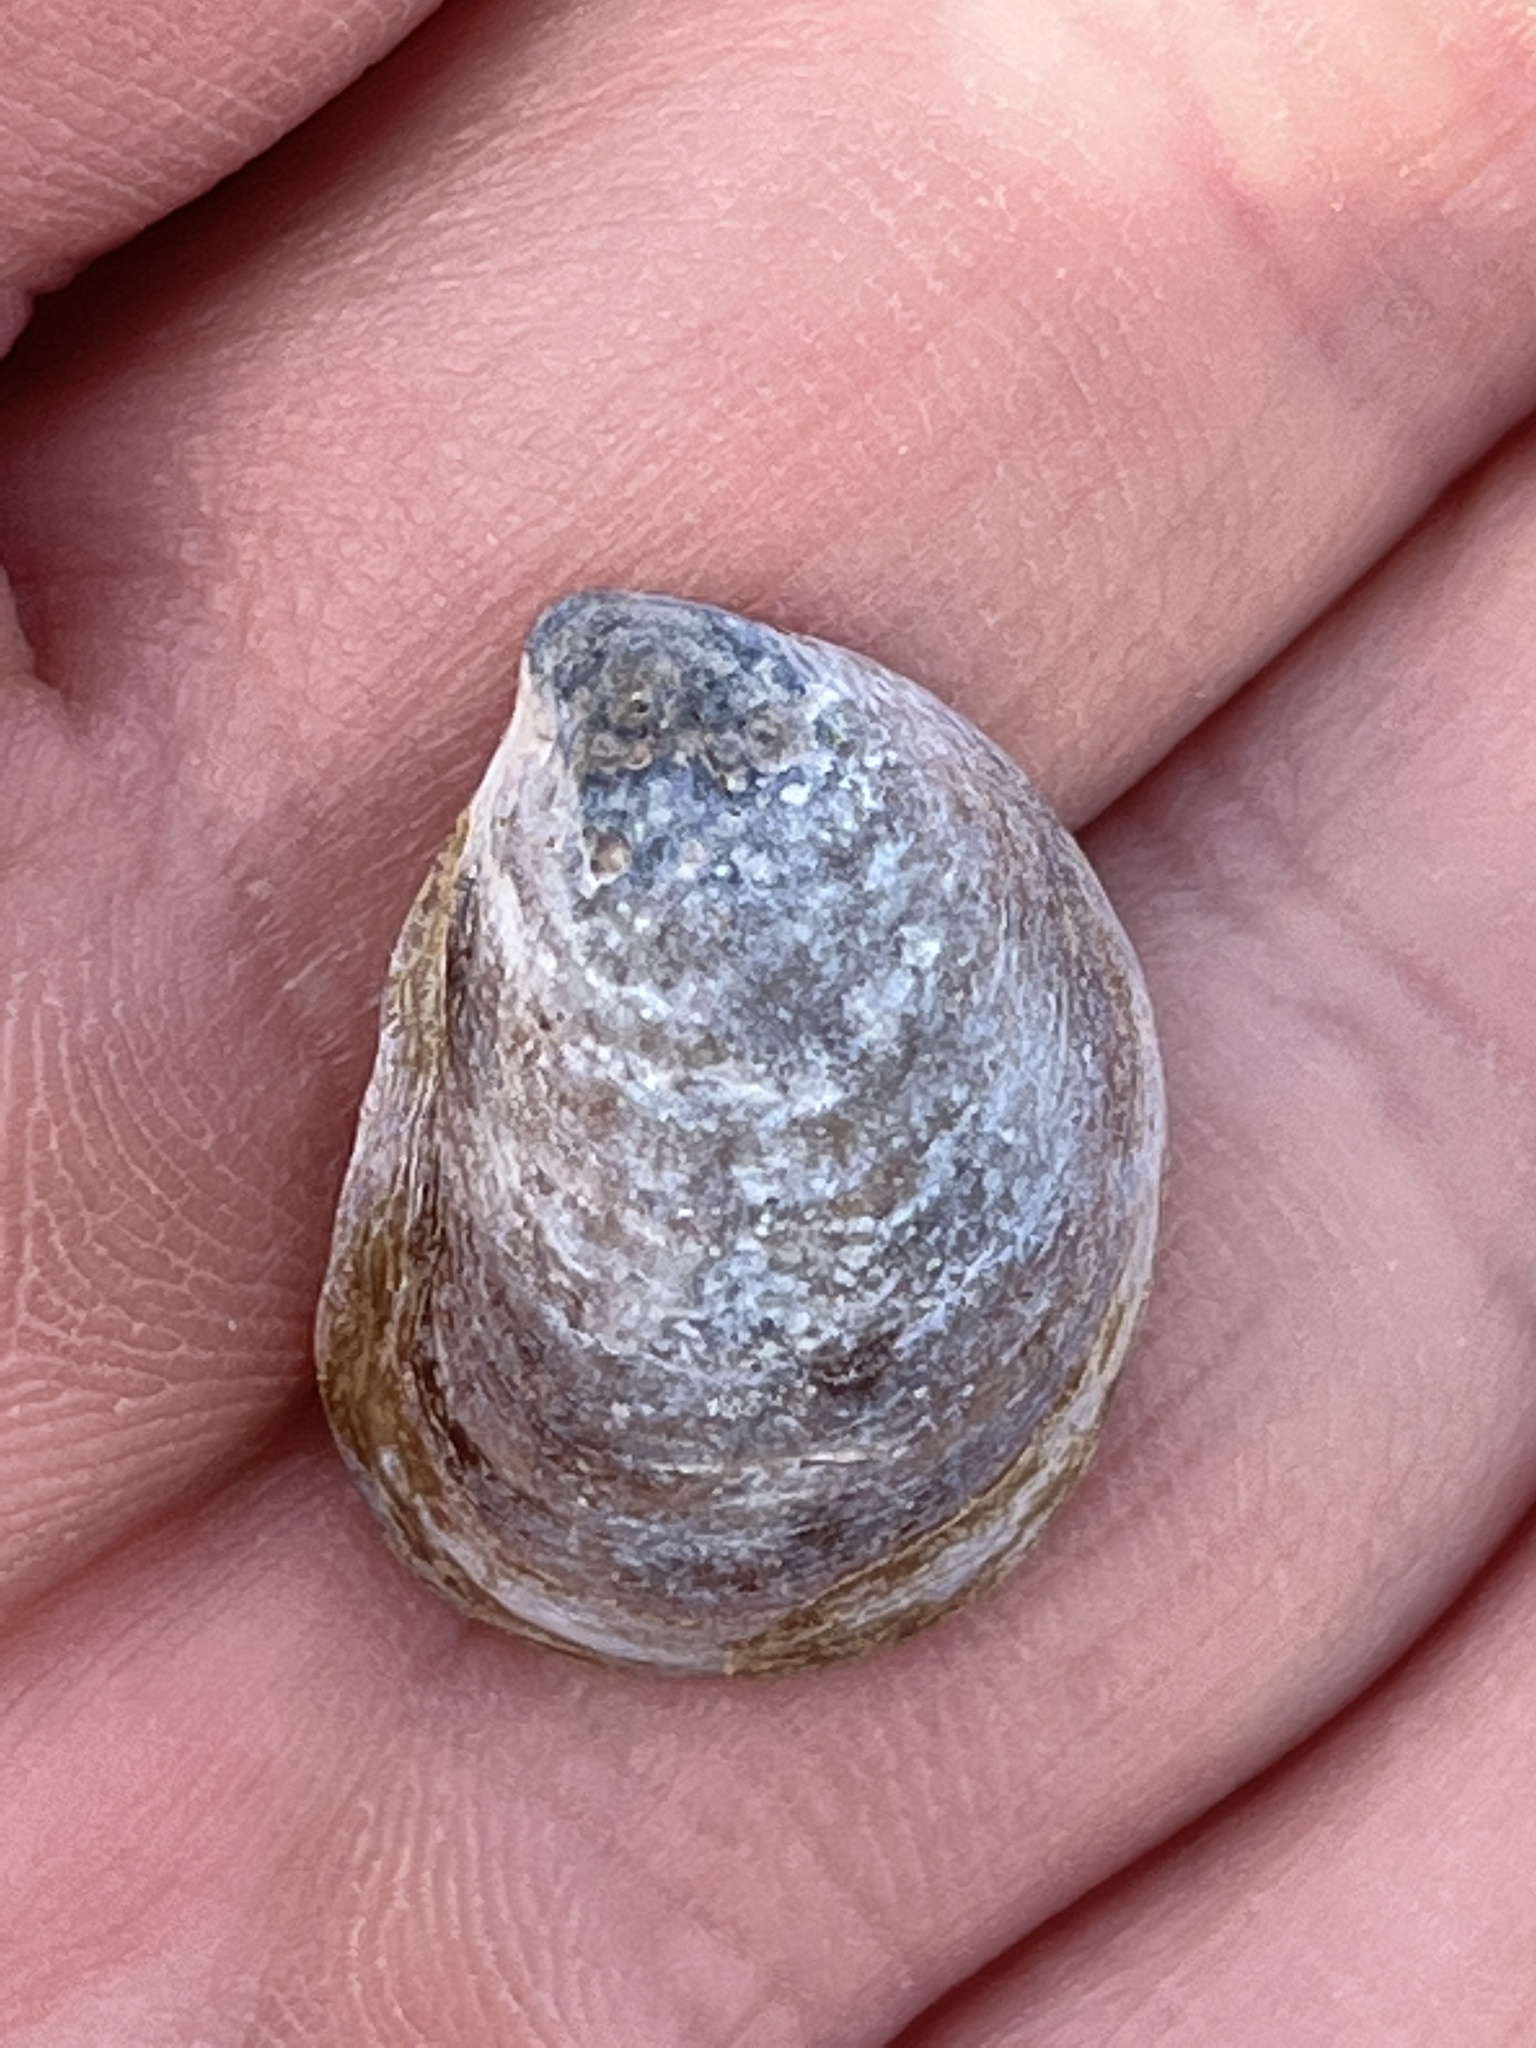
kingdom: Animalia
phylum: Mollusca
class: Gastropoda
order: Littorinimorpha
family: Calyptraeidae
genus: Crepidula
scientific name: Crepidula onyx
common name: Onyx slippersnail
